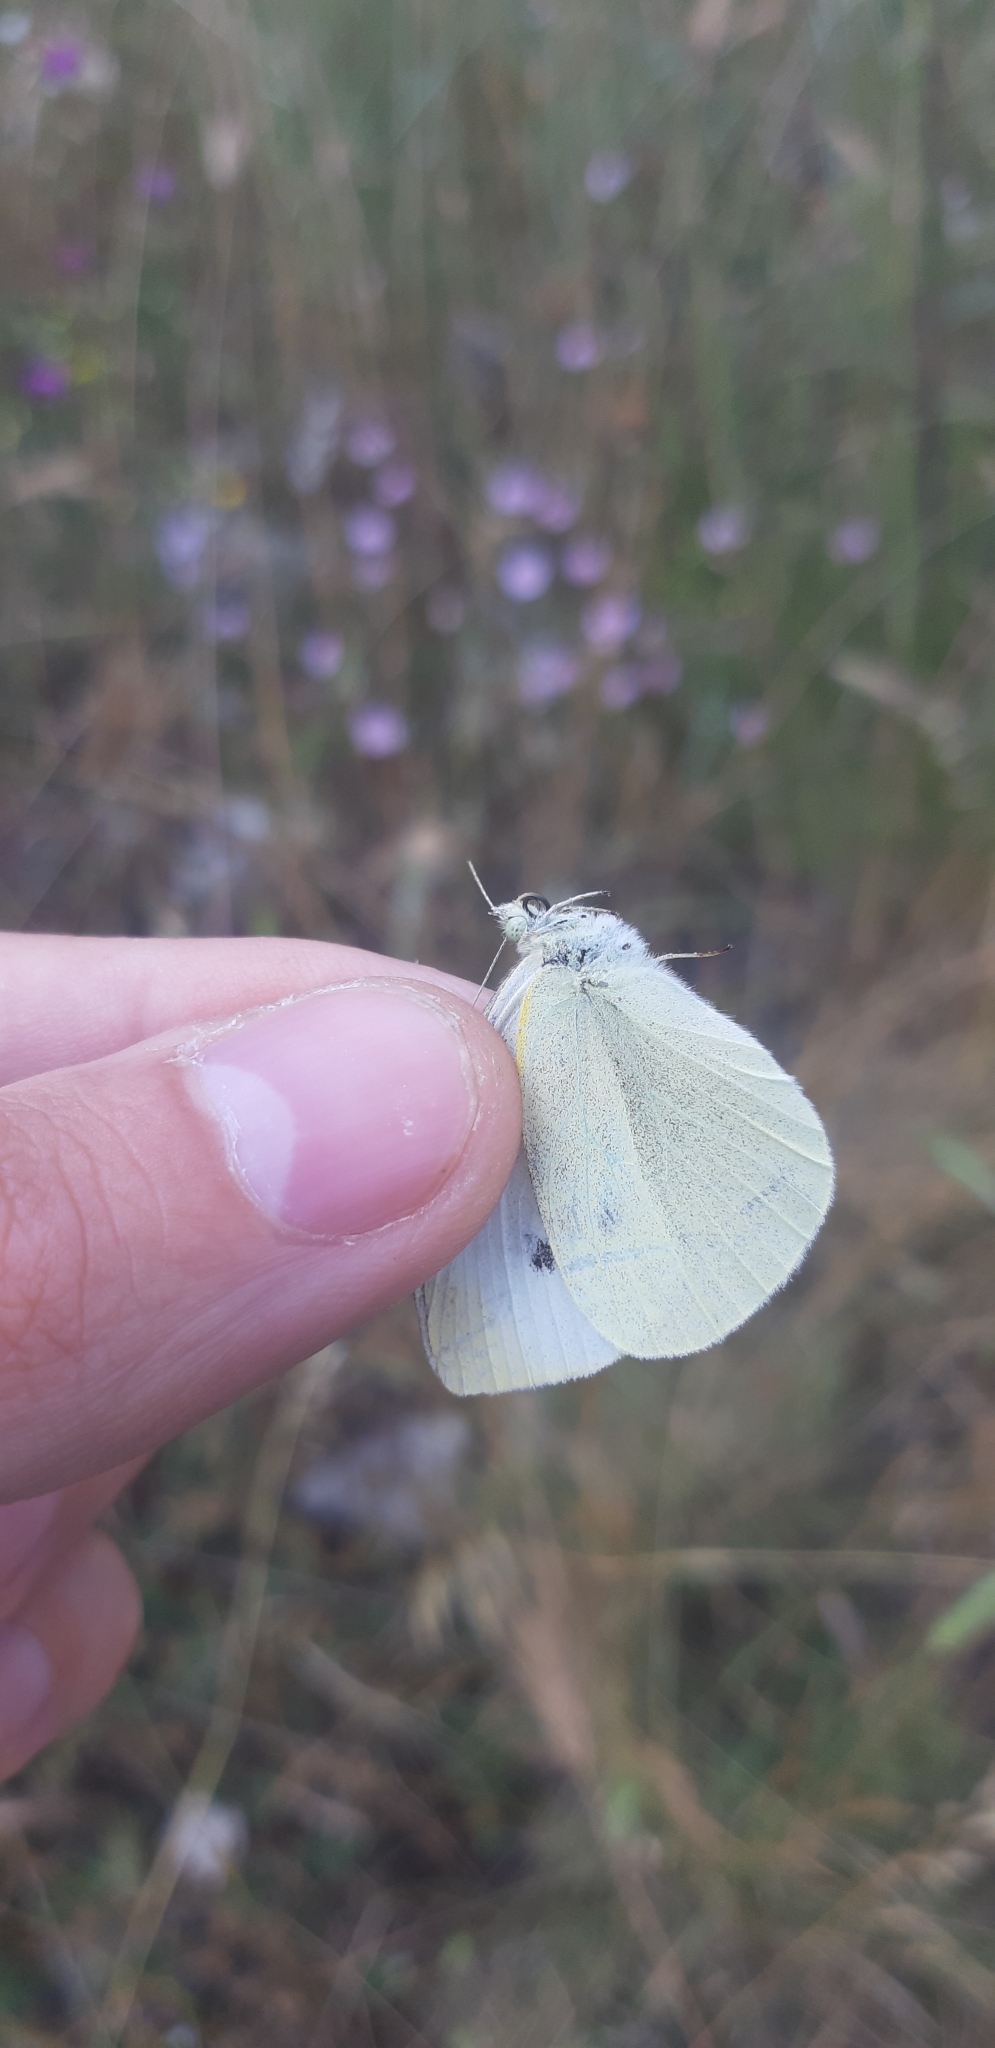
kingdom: Animalia
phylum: Arthropoda
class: Insecta
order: Lepidoptera
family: Pieridae
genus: Pieris
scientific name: Pieris rapae
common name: Small white
